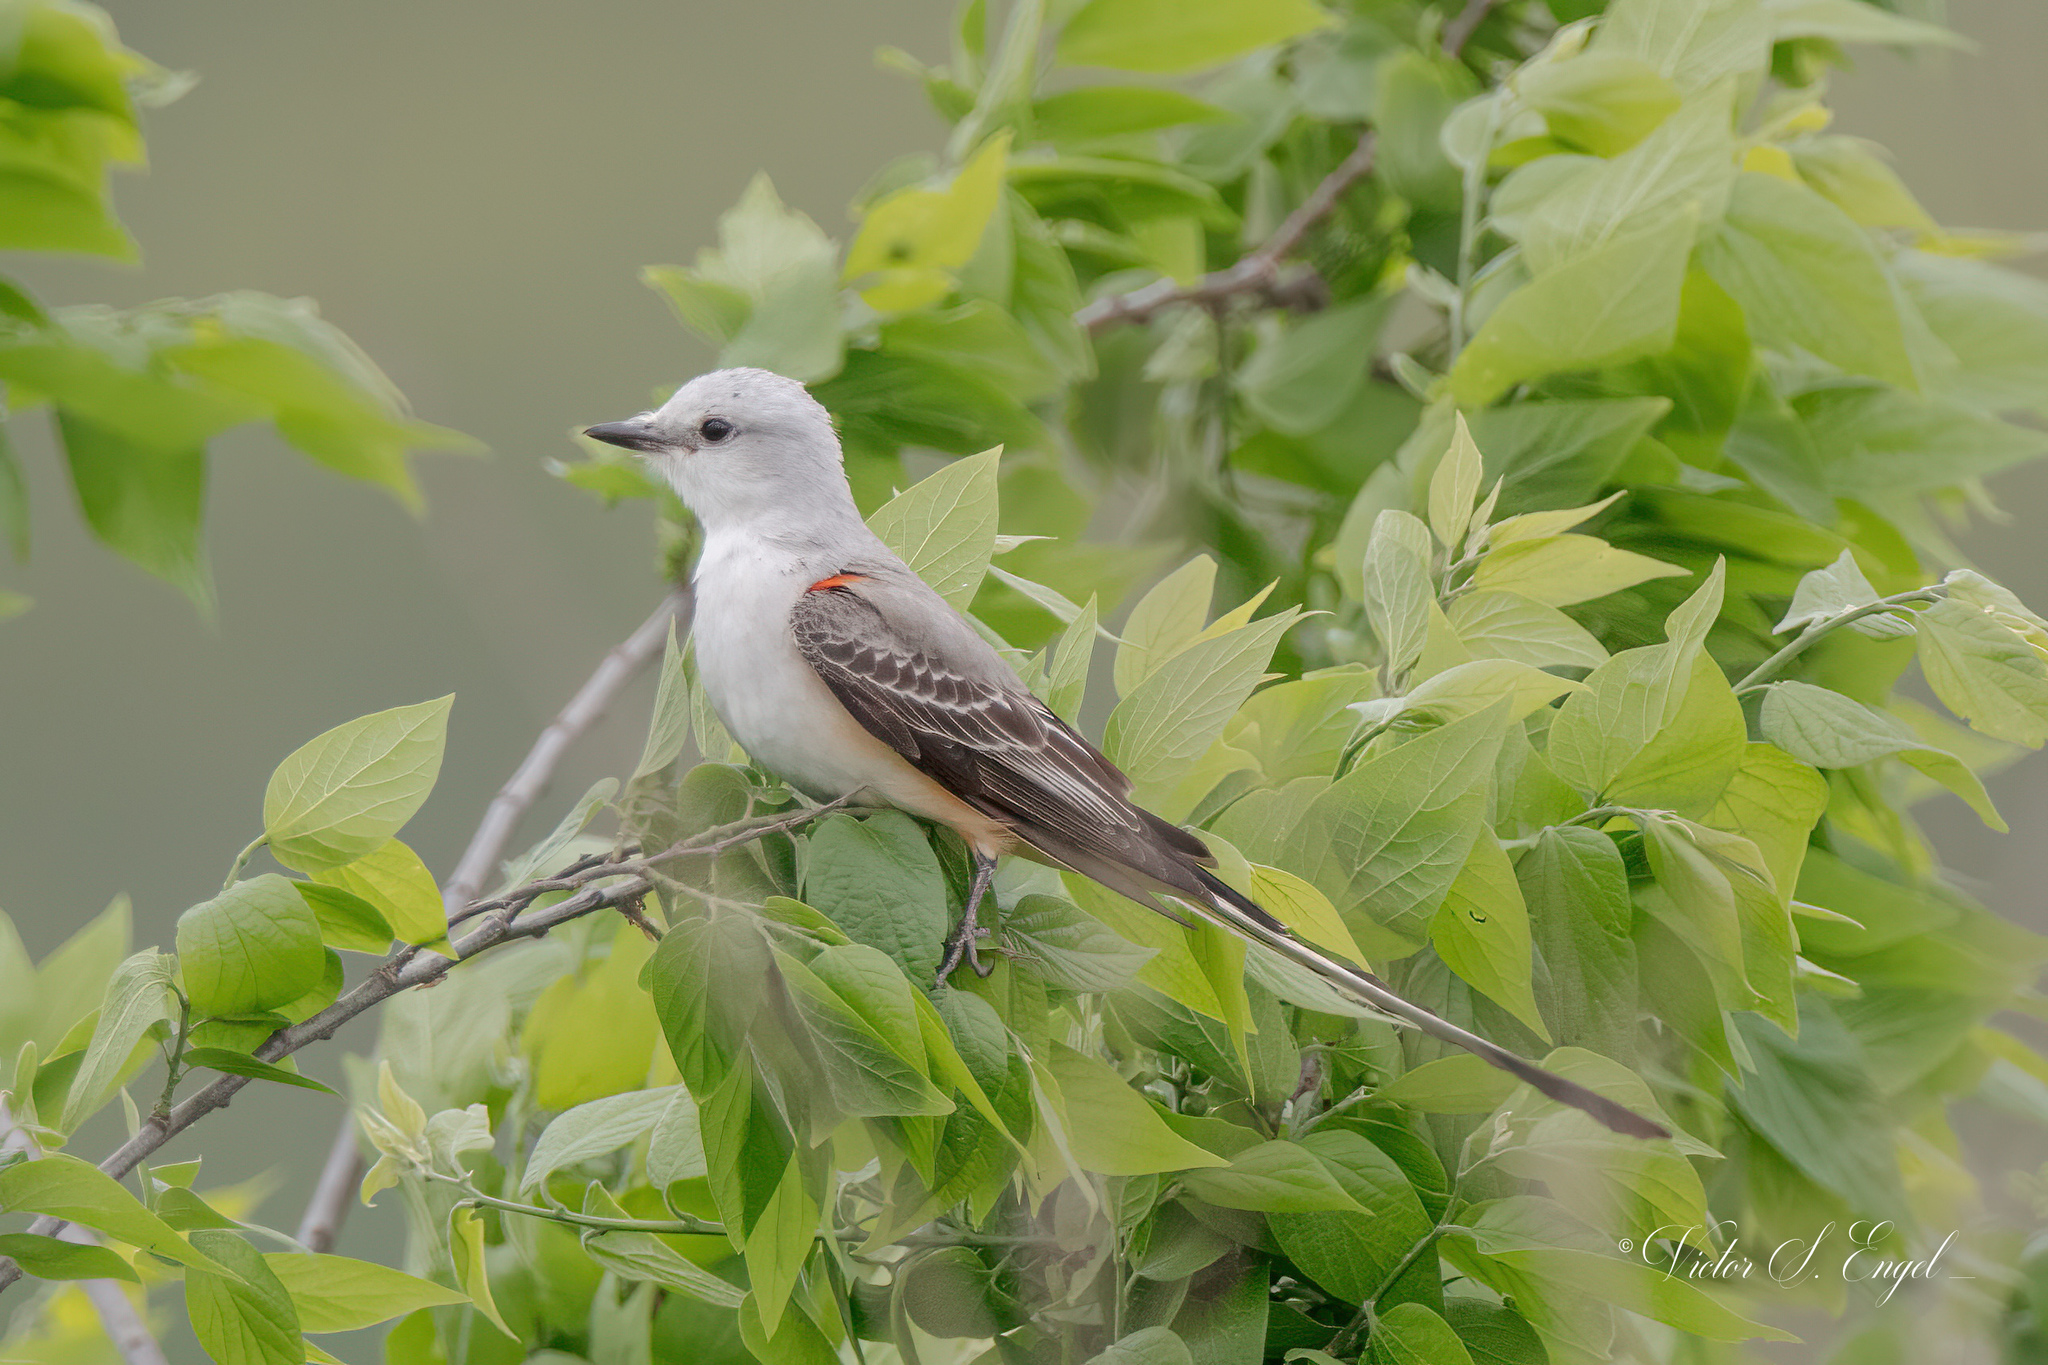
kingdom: Animalia
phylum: Chordata
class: Aves
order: Passeriformes
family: Tyrannidae
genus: Tyrannus
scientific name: Tyrannus forficatus
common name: Scissor-tailed flycatcher
